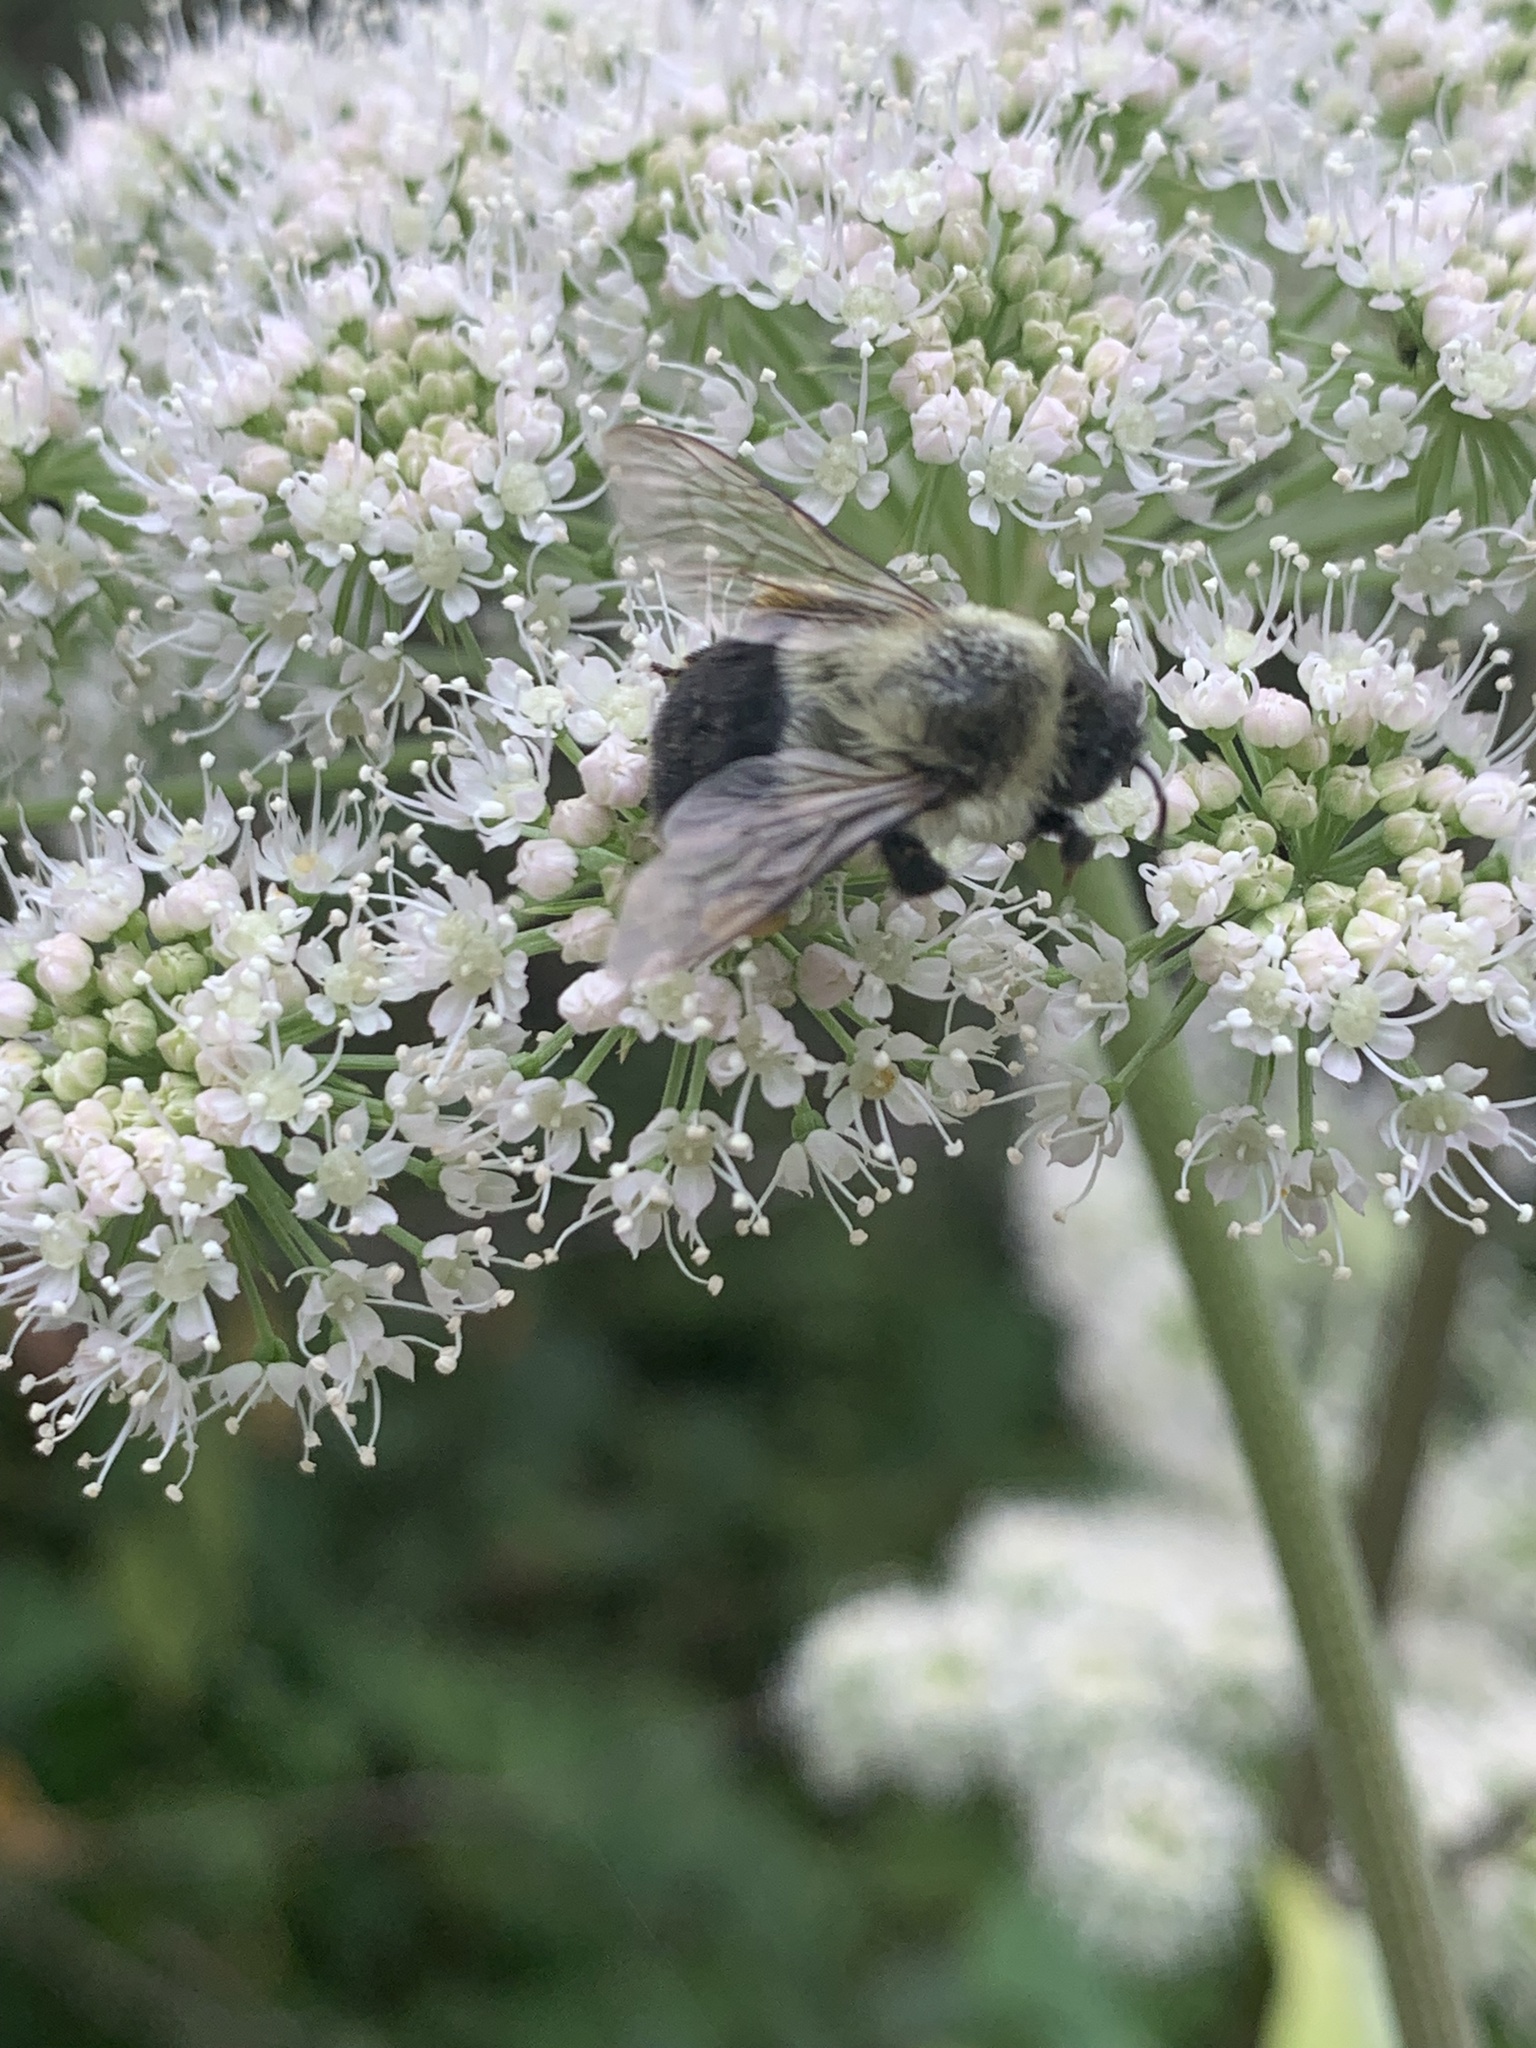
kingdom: Animalia
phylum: Arthropoda
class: Insecta
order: Hymenoptera
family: Apidae
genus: Bombus
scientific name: Bombus impatiens
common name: Common eastern bumble bee
